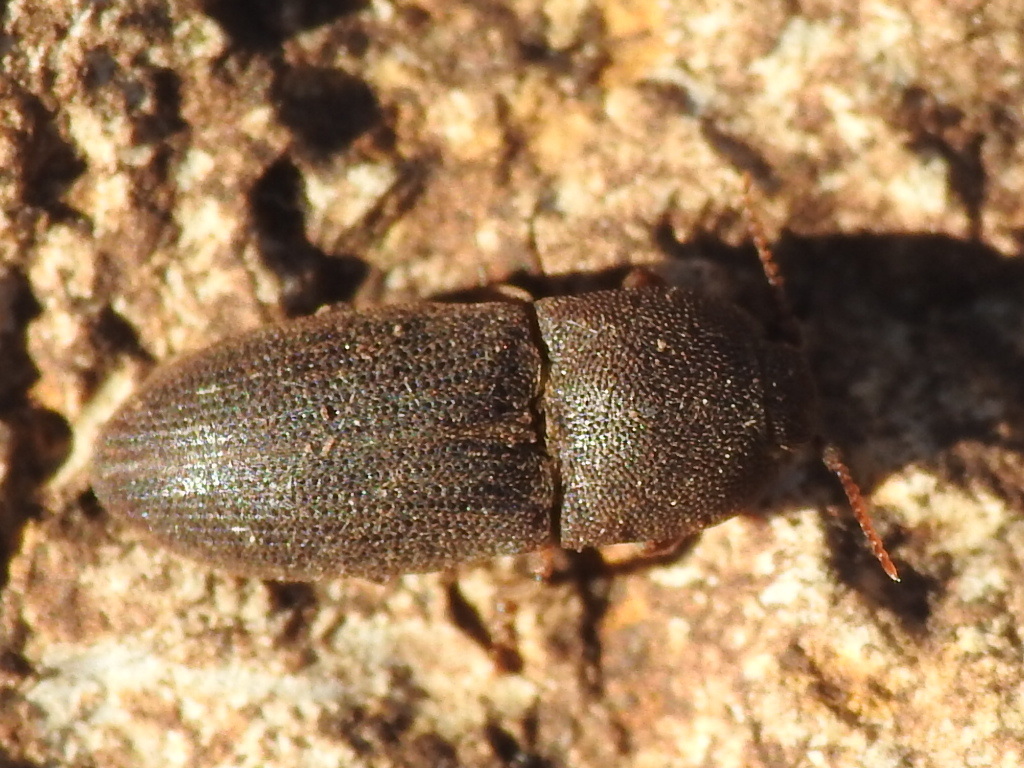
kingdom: Animalia
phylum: Arthropoda
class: Insecta
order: Coleoptera
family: Elateridae
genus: Agrypnus
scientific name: Agrypnus rectangularis
